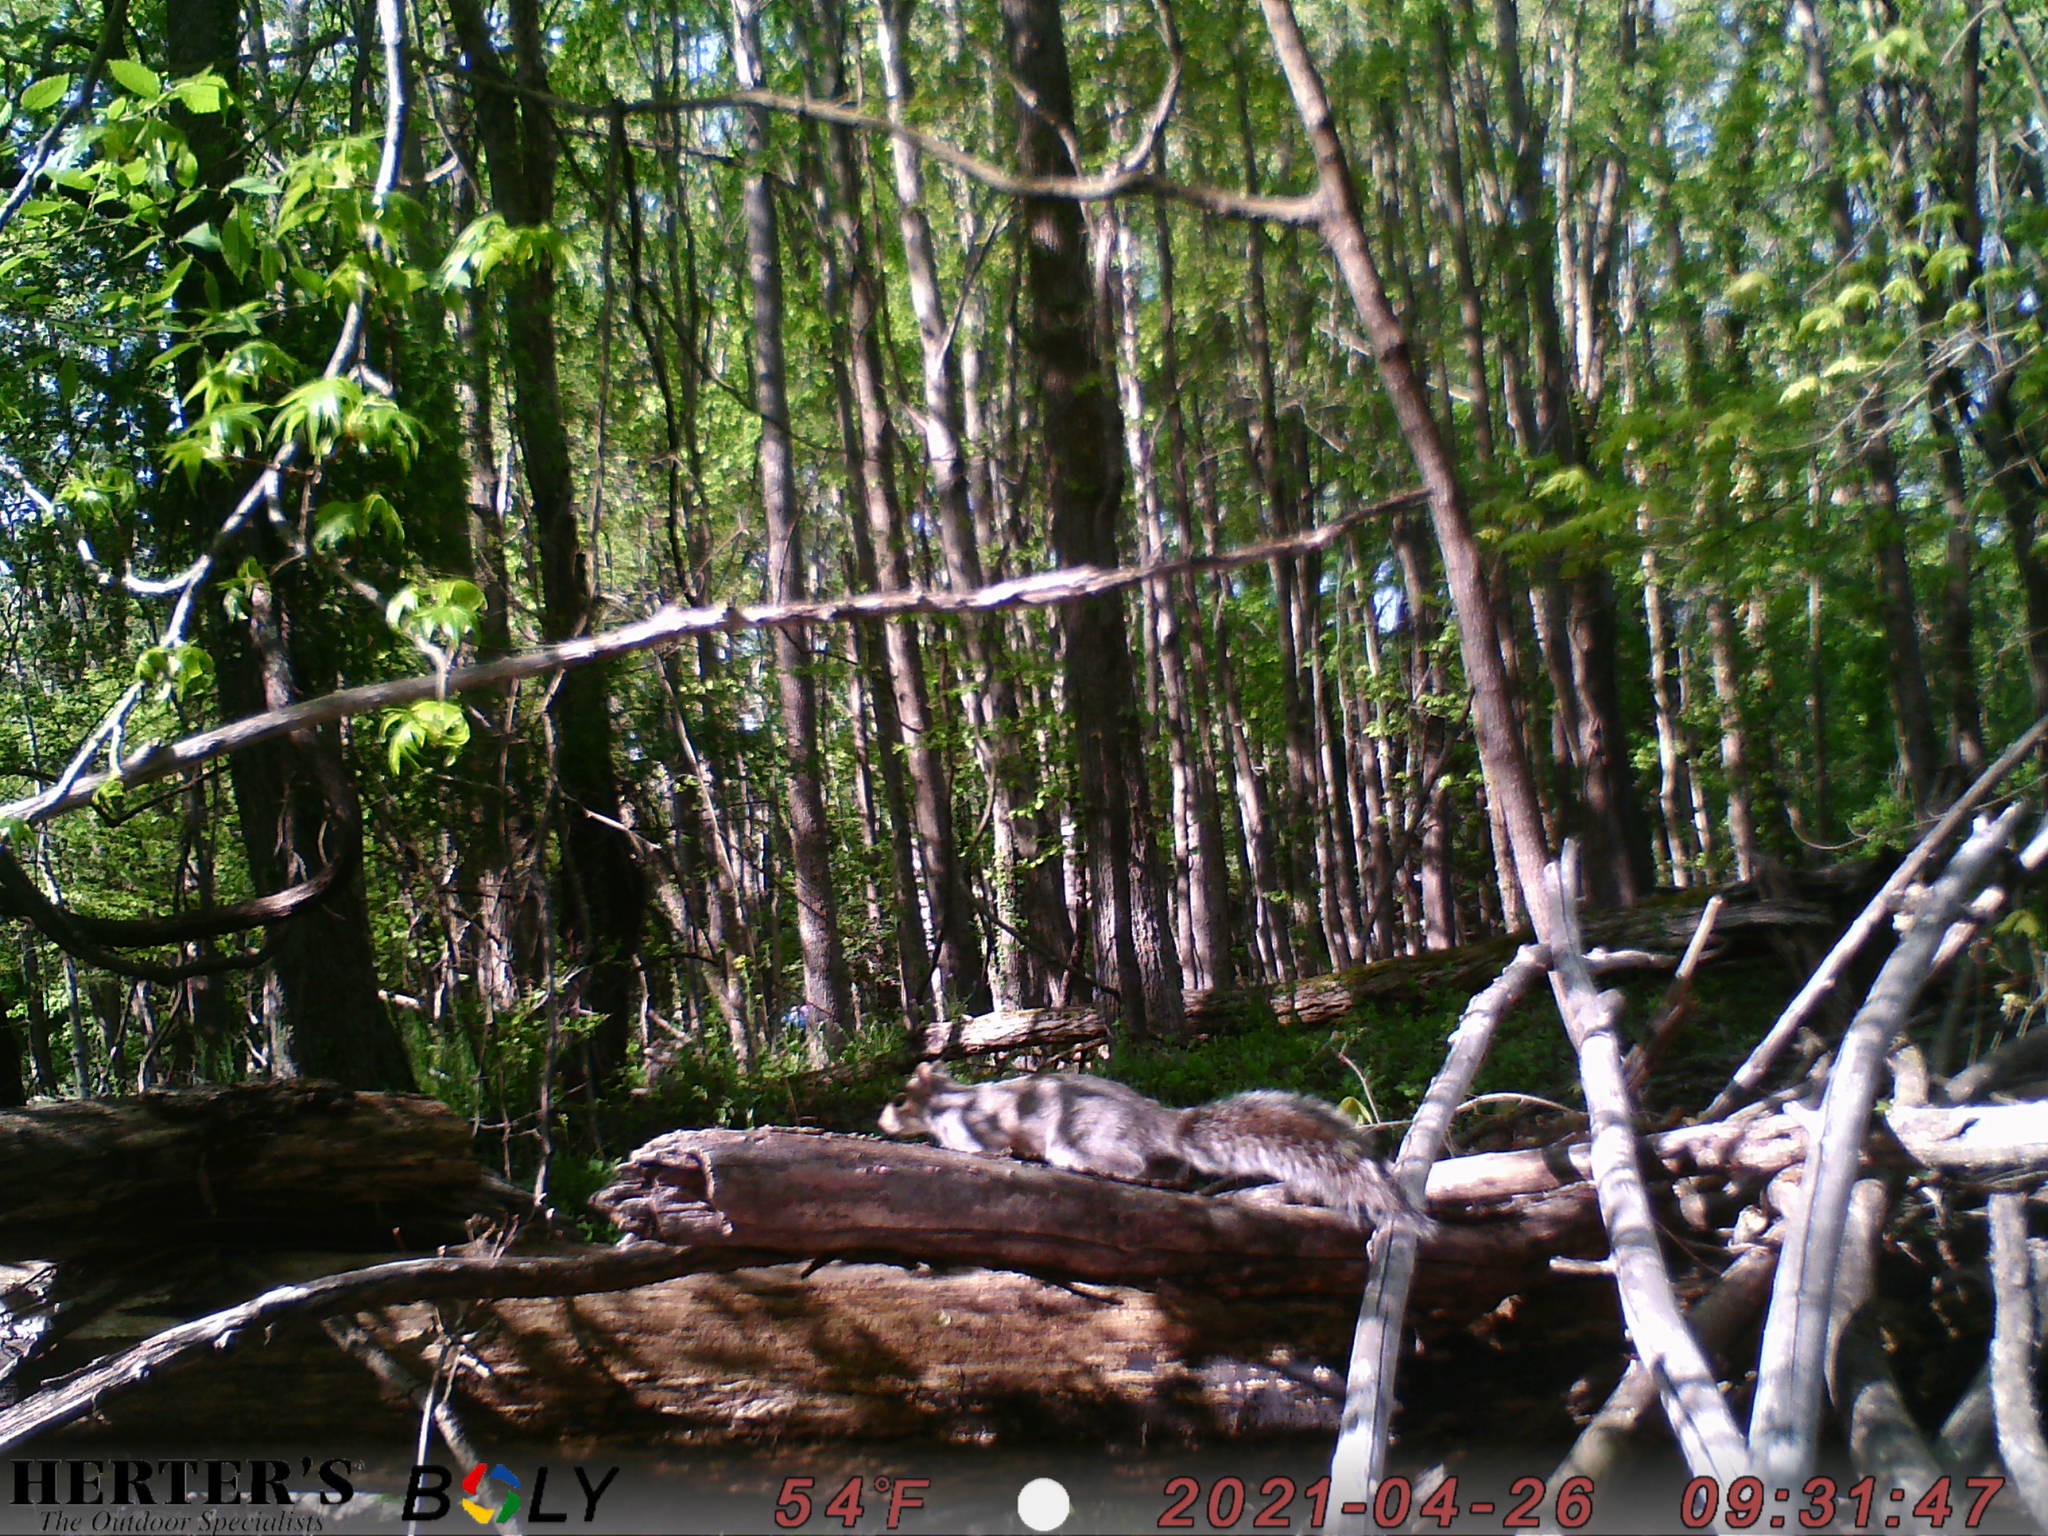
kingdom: Animalia
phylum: Chordata
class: Mammalia
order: Rodentia
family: Sciuridae
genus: Sciurus
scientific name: Sciurus carolinensis
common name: Eastern gray squirrel
